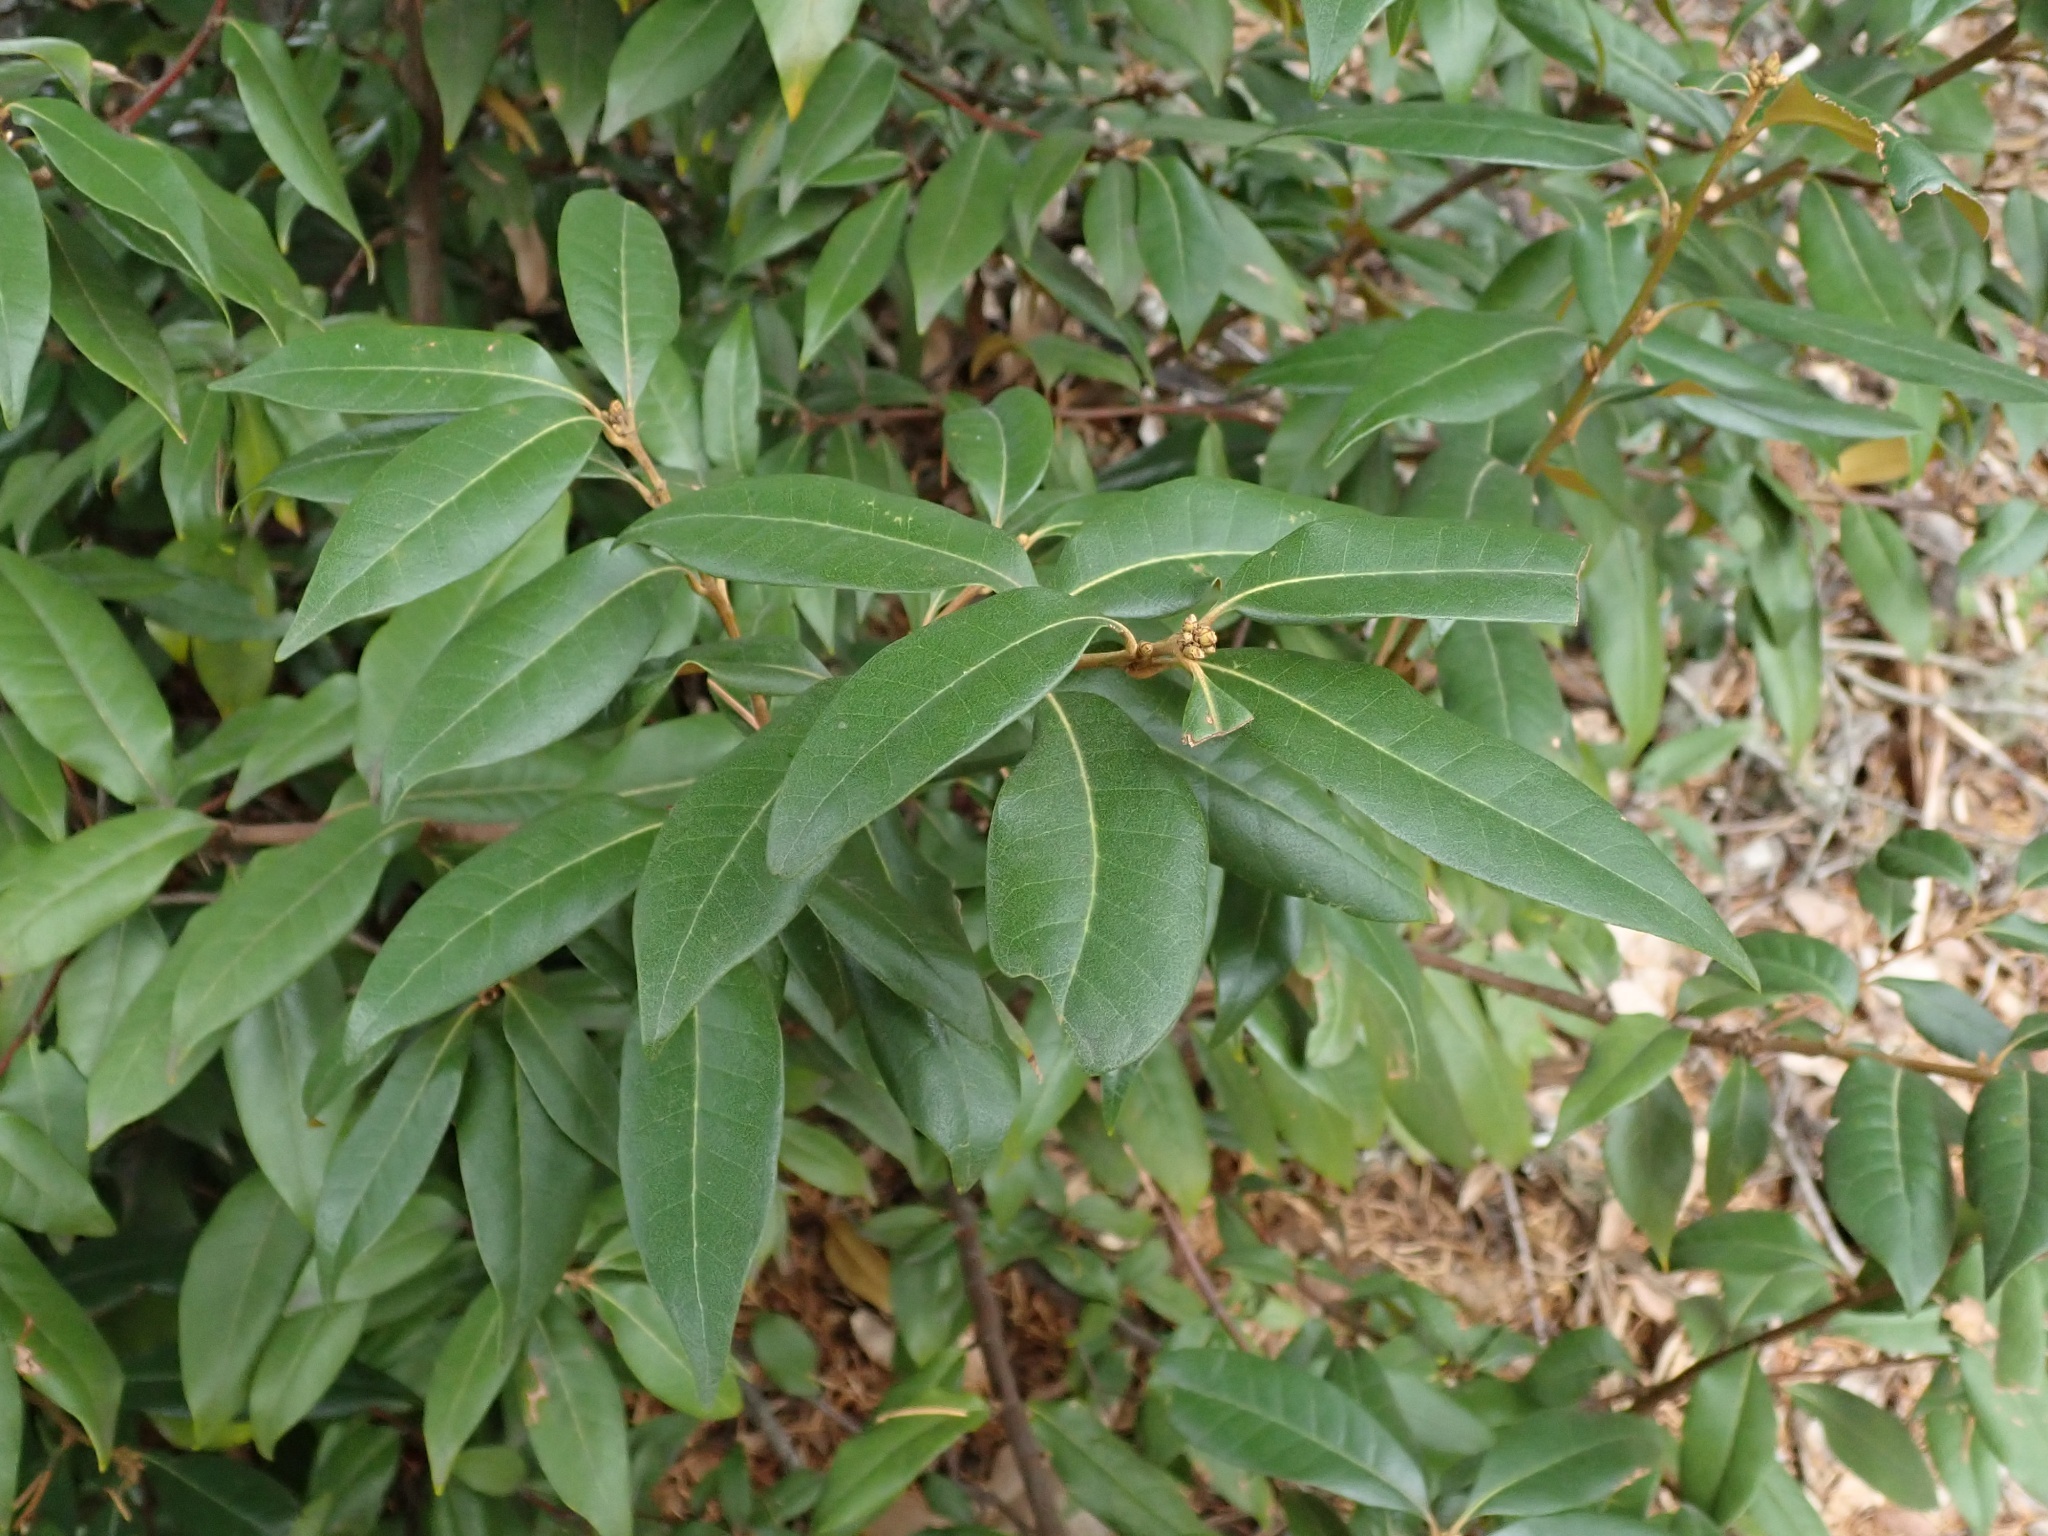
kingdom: Plantae
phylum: Tracheophyta
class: Magnoliopsida
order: Fagales
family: Fagaceae
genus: Chrysolepis
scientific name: Chrysolepis chrysophylla
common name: Giant chinquapin
